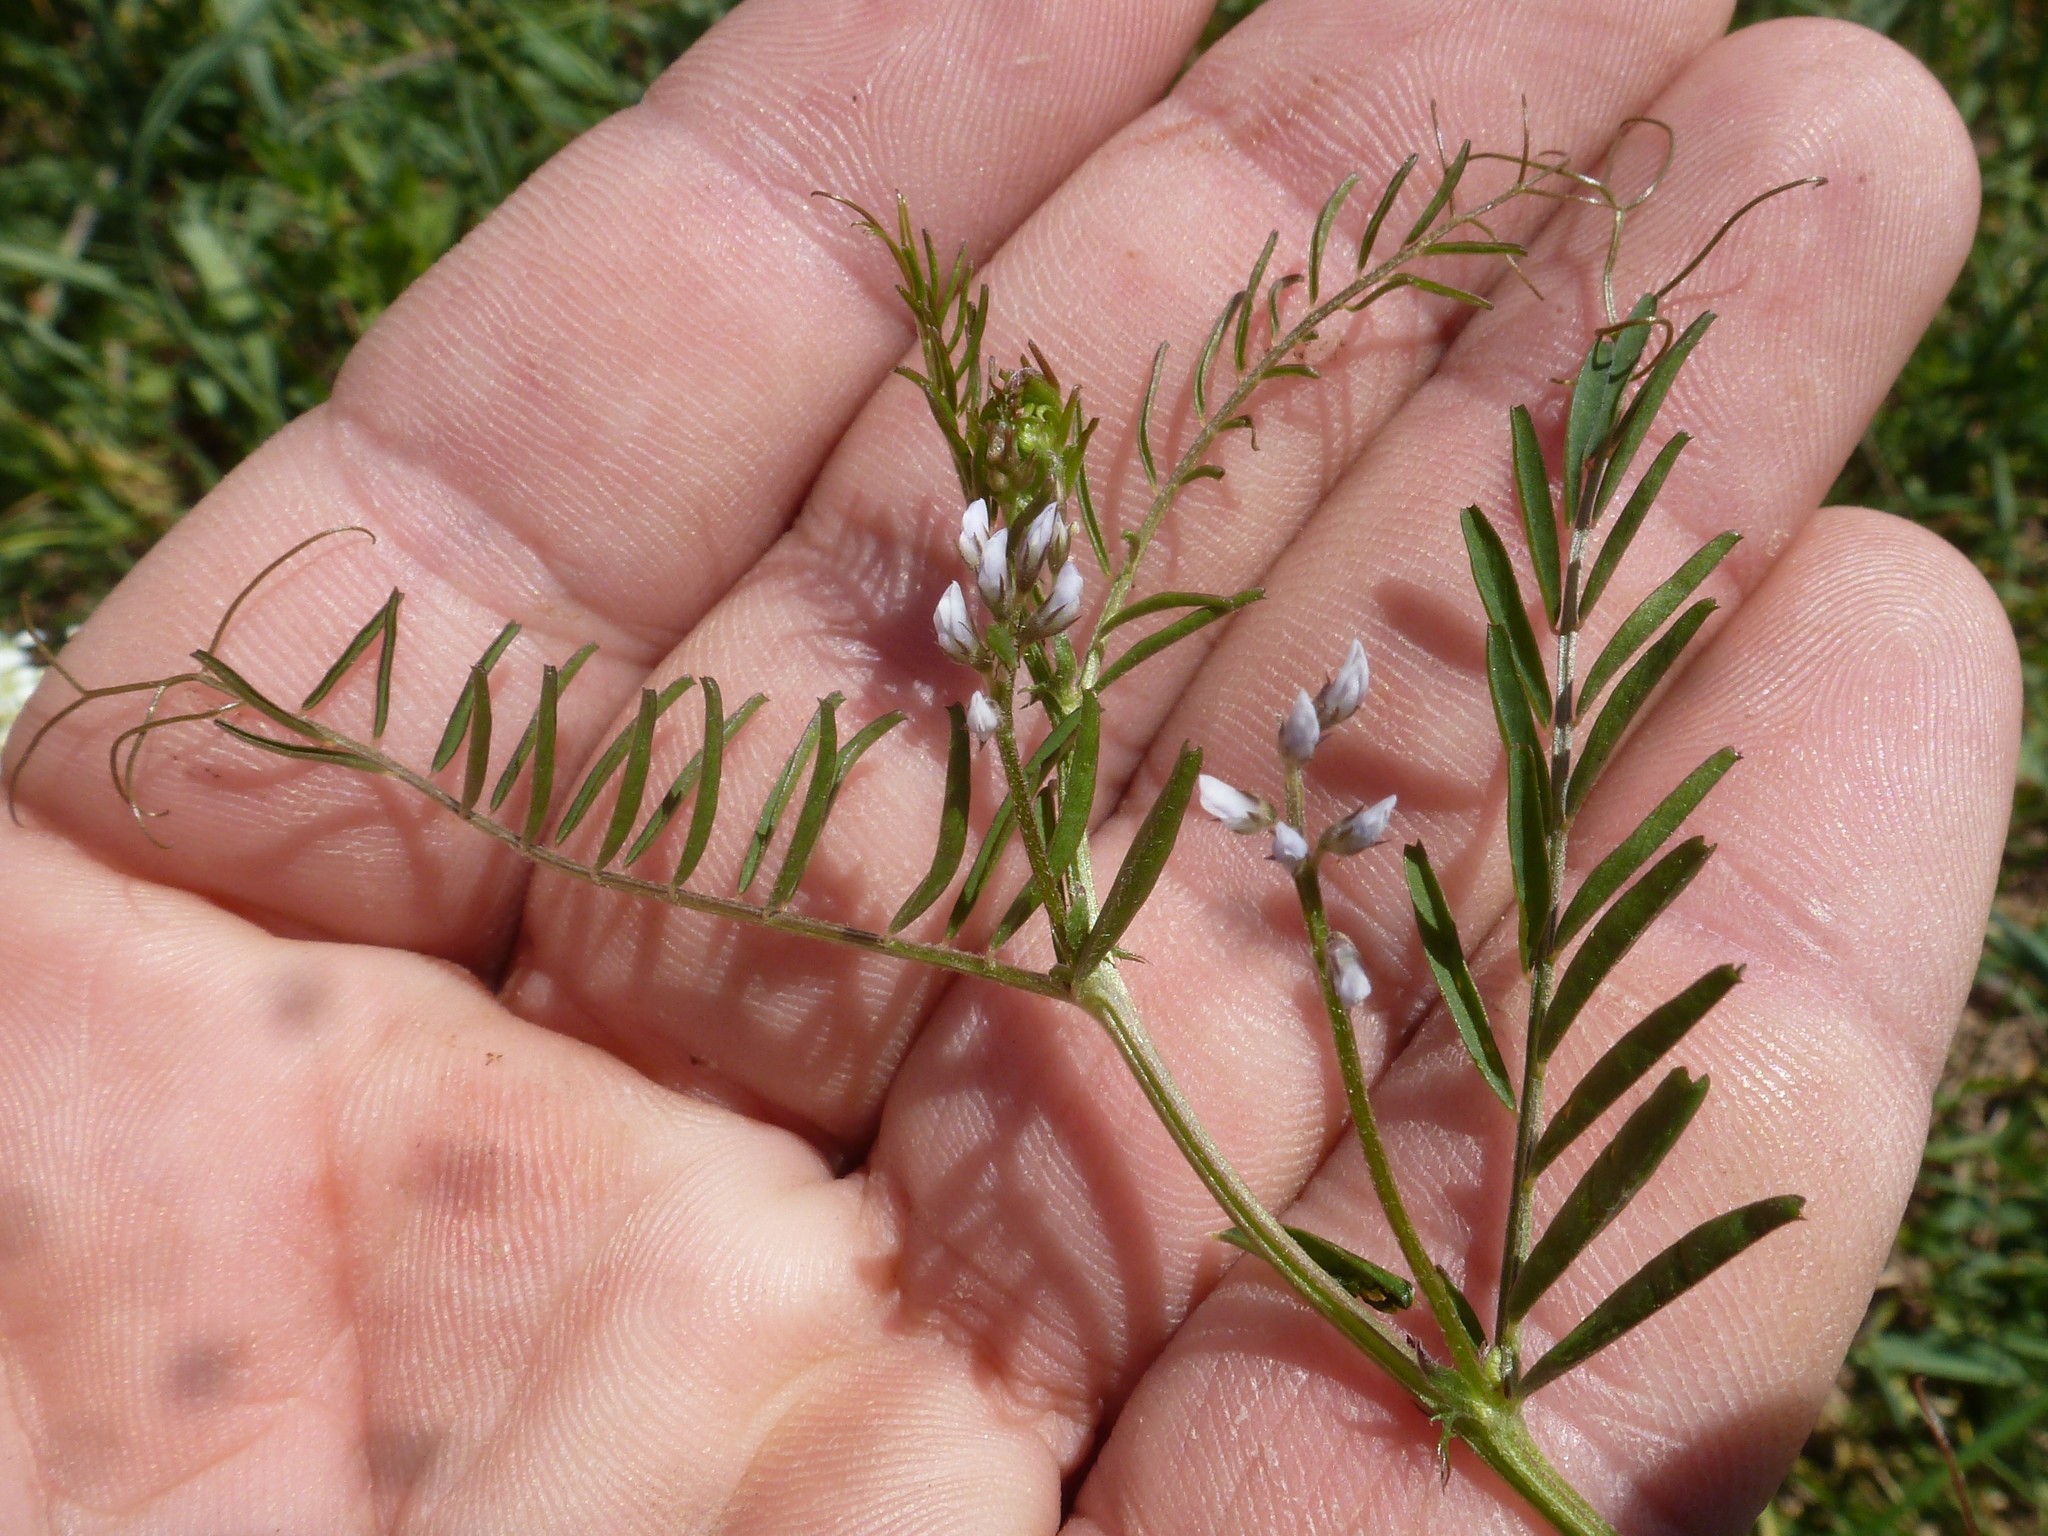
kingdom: Plantae
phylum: Tracheophyta
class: Magnoliopsida
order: Fabales
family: Fabaceae
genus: Vicia
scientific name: Vicia hirsuta
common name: Tiny vetch
